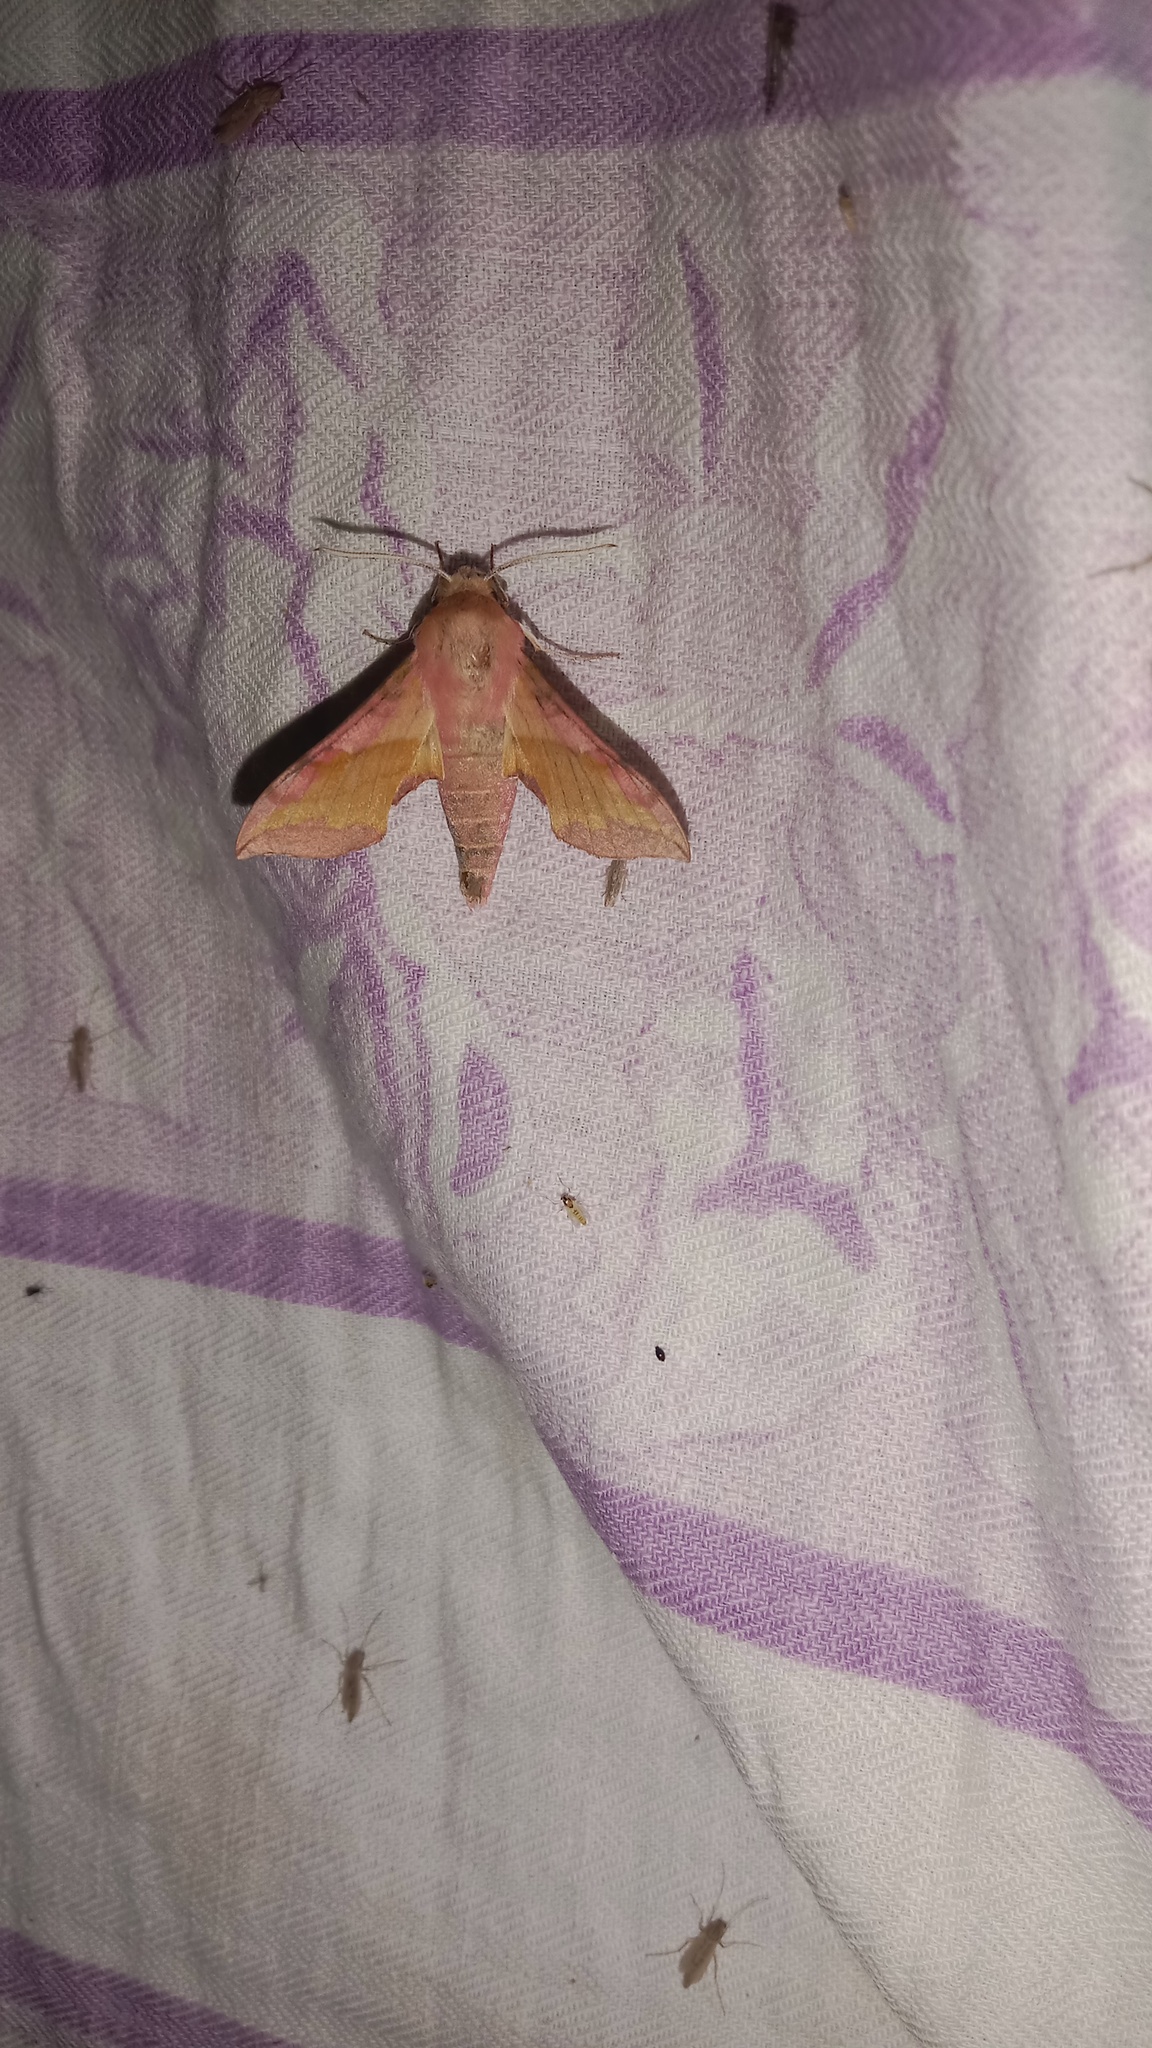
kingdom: Animalia
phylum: Arthropoda
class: Insecta
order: Lepidoptera
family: Sphingidae
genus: Deilephila
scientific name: Deilephila porcellus
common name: Small elephant hawk-moth
